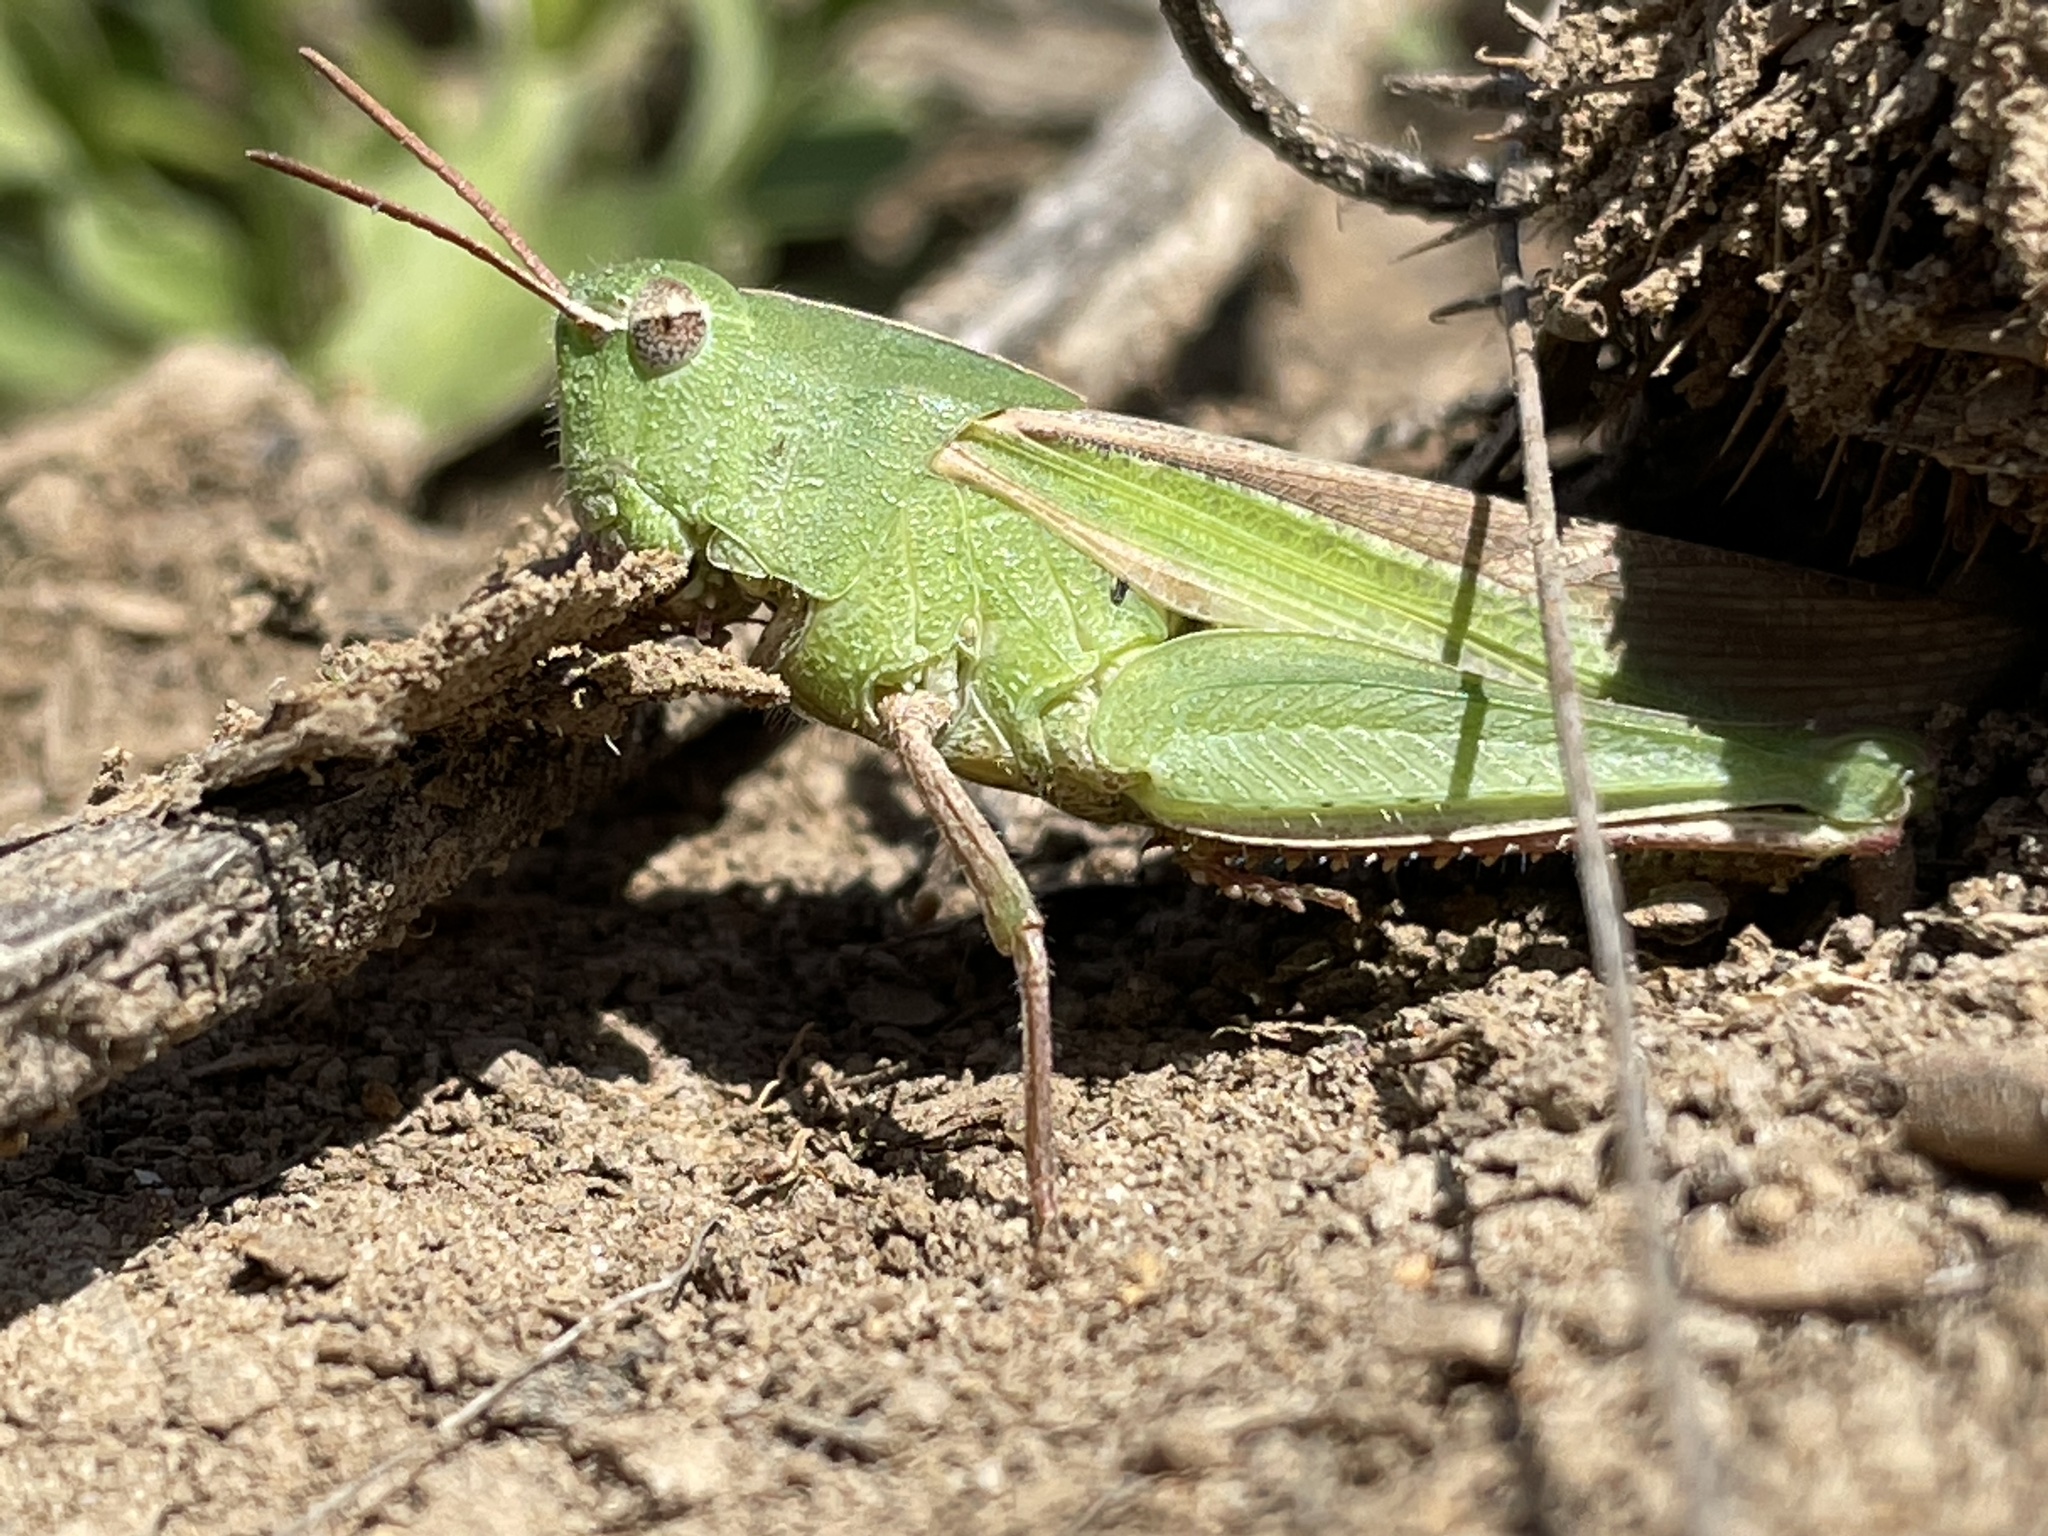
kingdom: Animalia
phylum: Arthropoda
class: Insecta
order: Orthoptera
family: Acrididae
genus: Chortophaga
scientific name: Chortophaga viridifasciata
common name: Green-striped grasshopper
